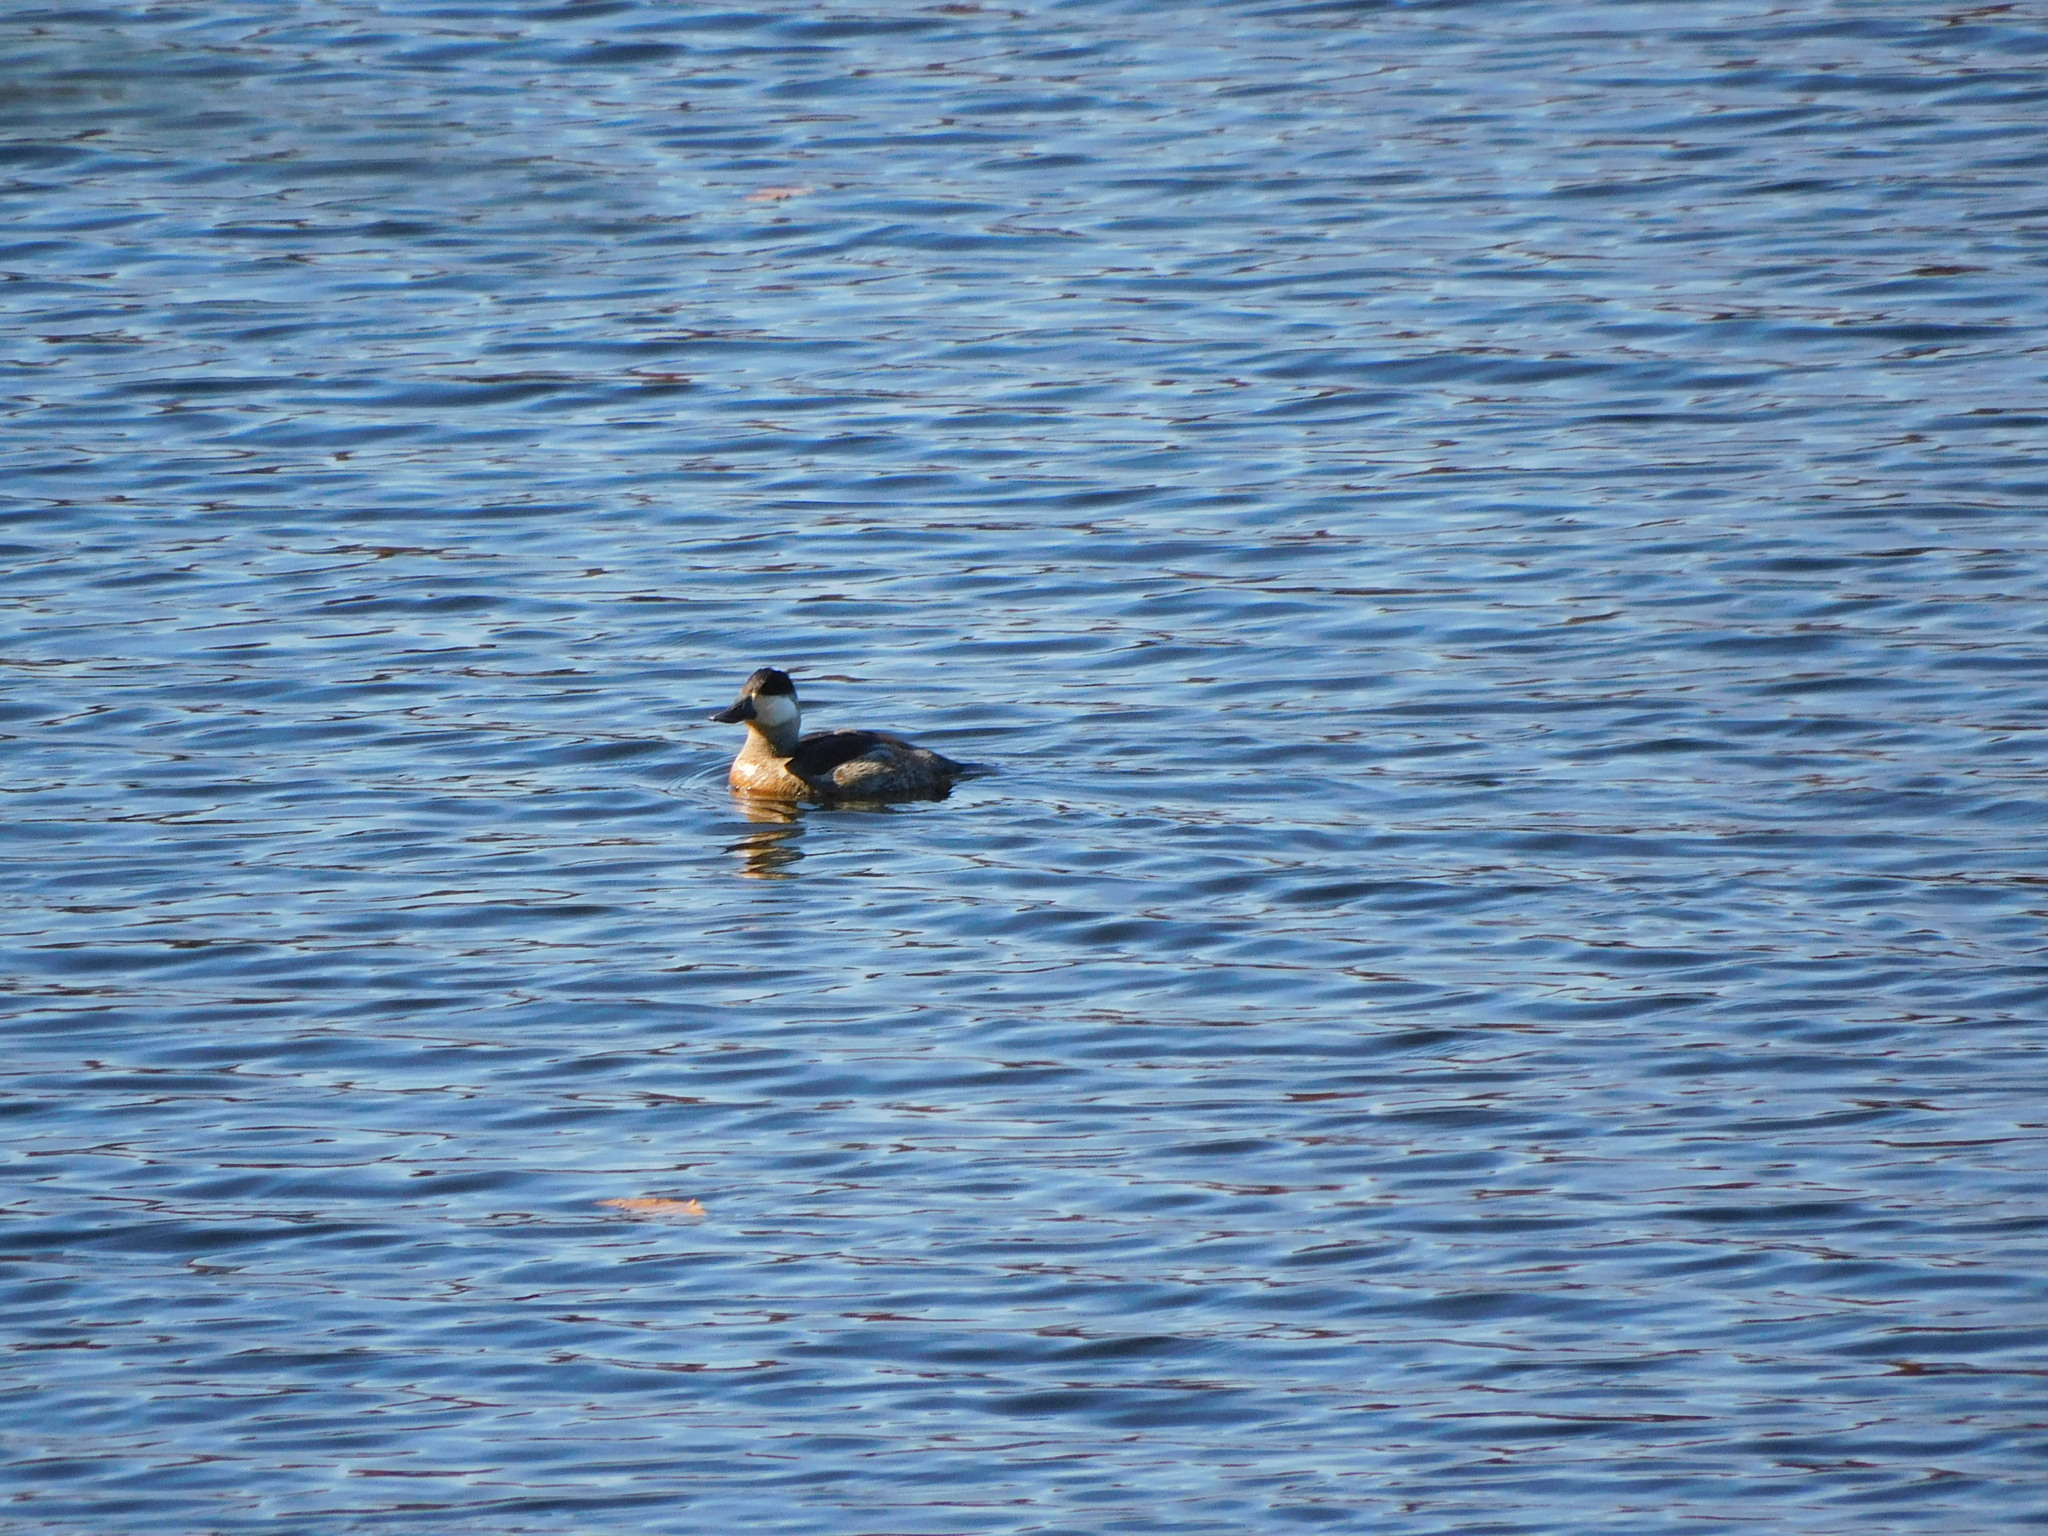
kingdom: Animalia
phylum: Chordata
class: Aves
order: Anseriformes
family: Anatidae
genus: Oxyura
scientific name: Oxyura jamaicensis
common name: Ruddy duck
